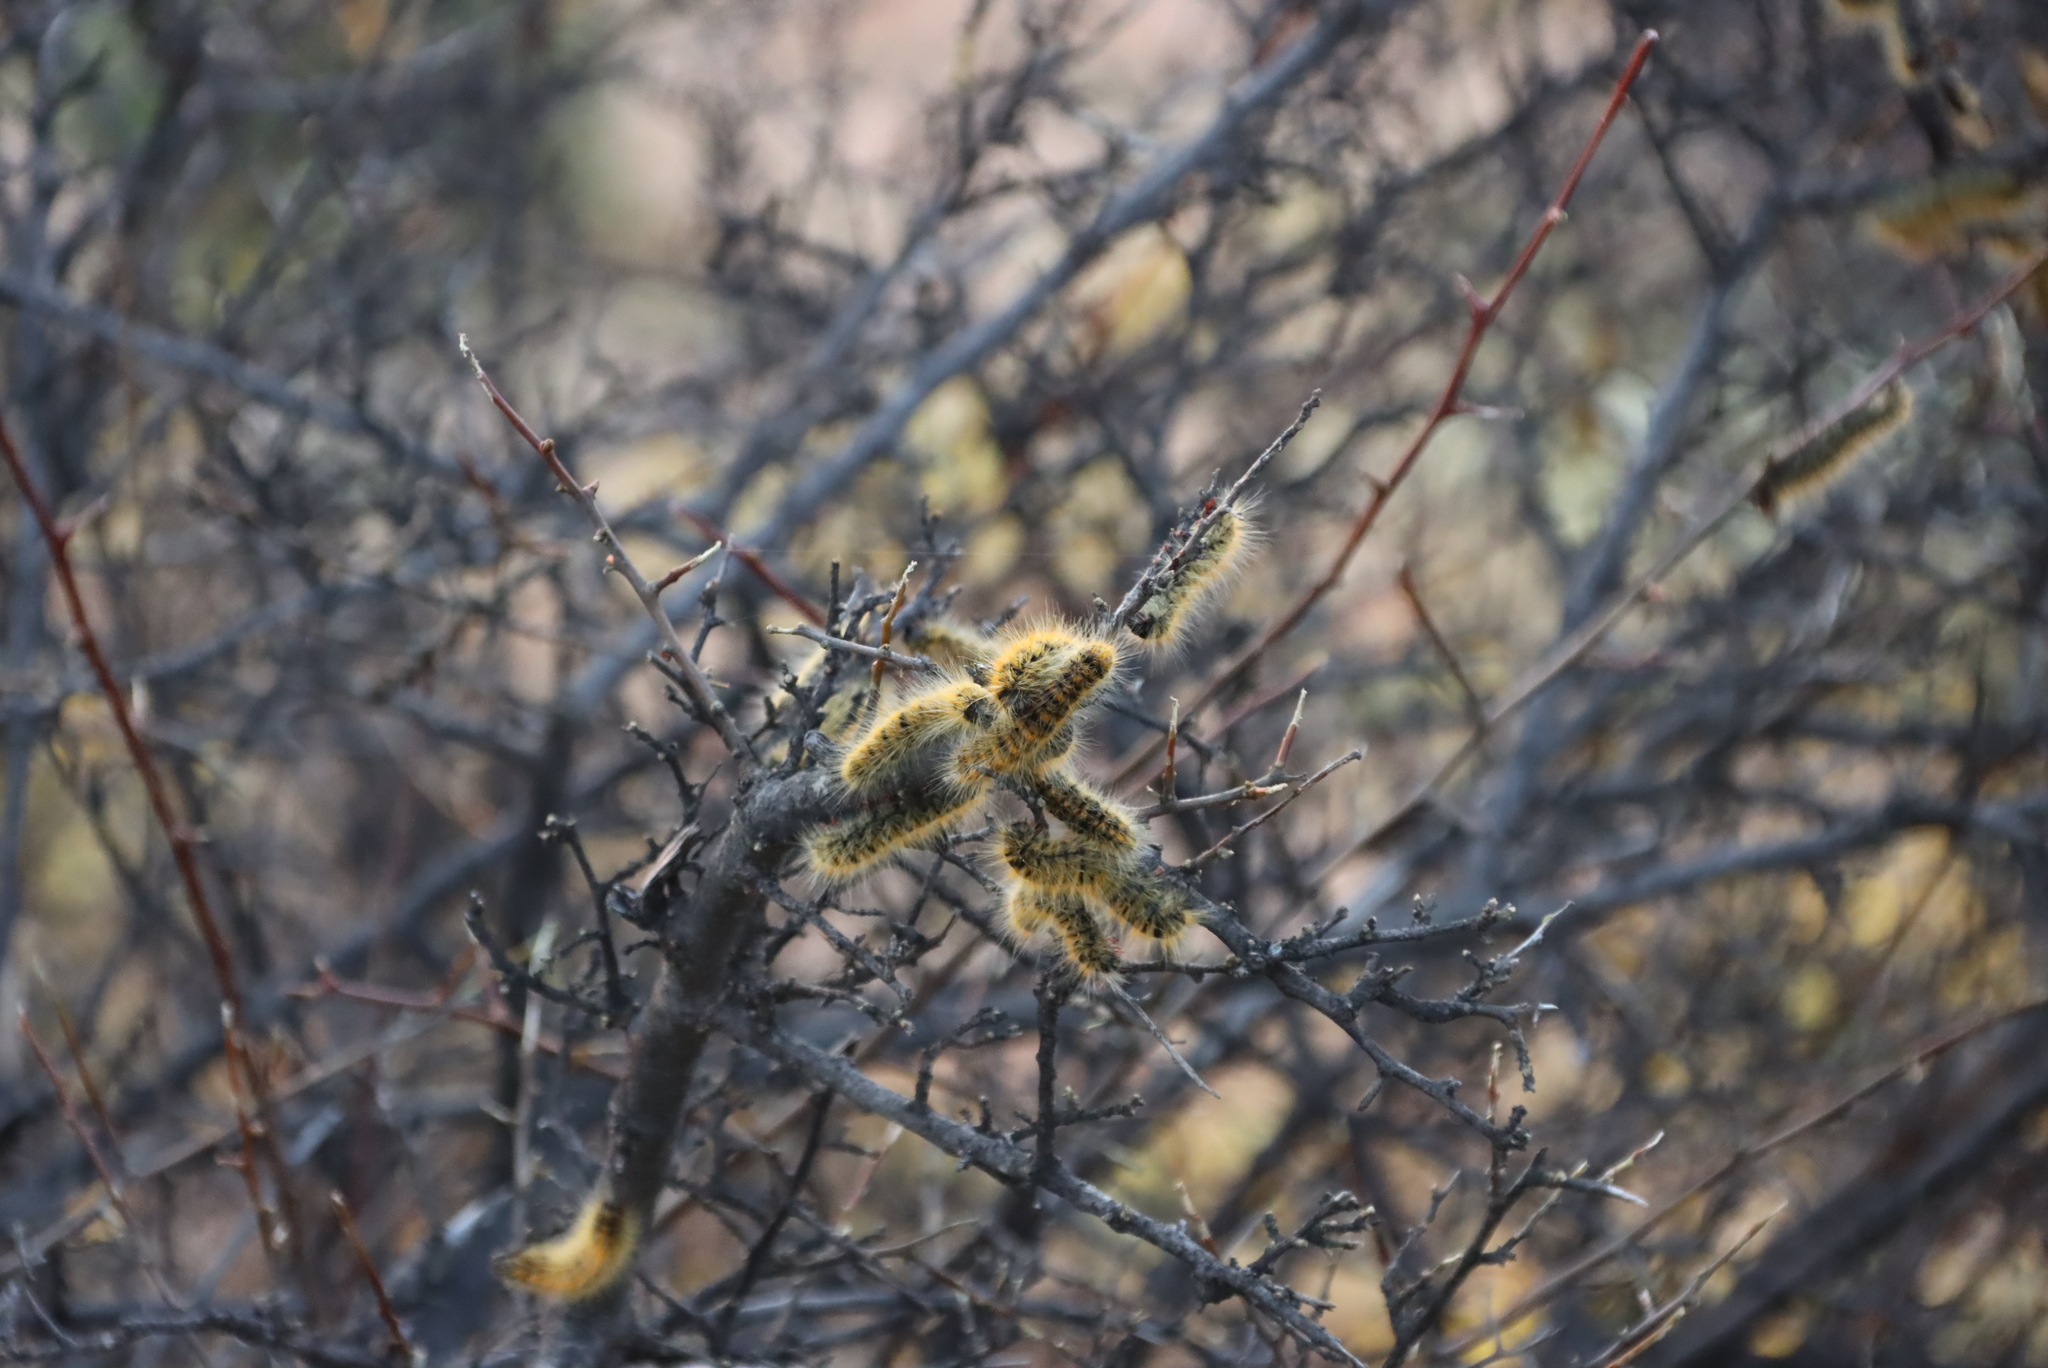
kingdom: Animalia
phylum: Arthropoda
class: Insecta
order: Lepidoptera
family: Lasiocampidae
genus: Bombycomorpha
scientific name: Bombycomorpha dukei
